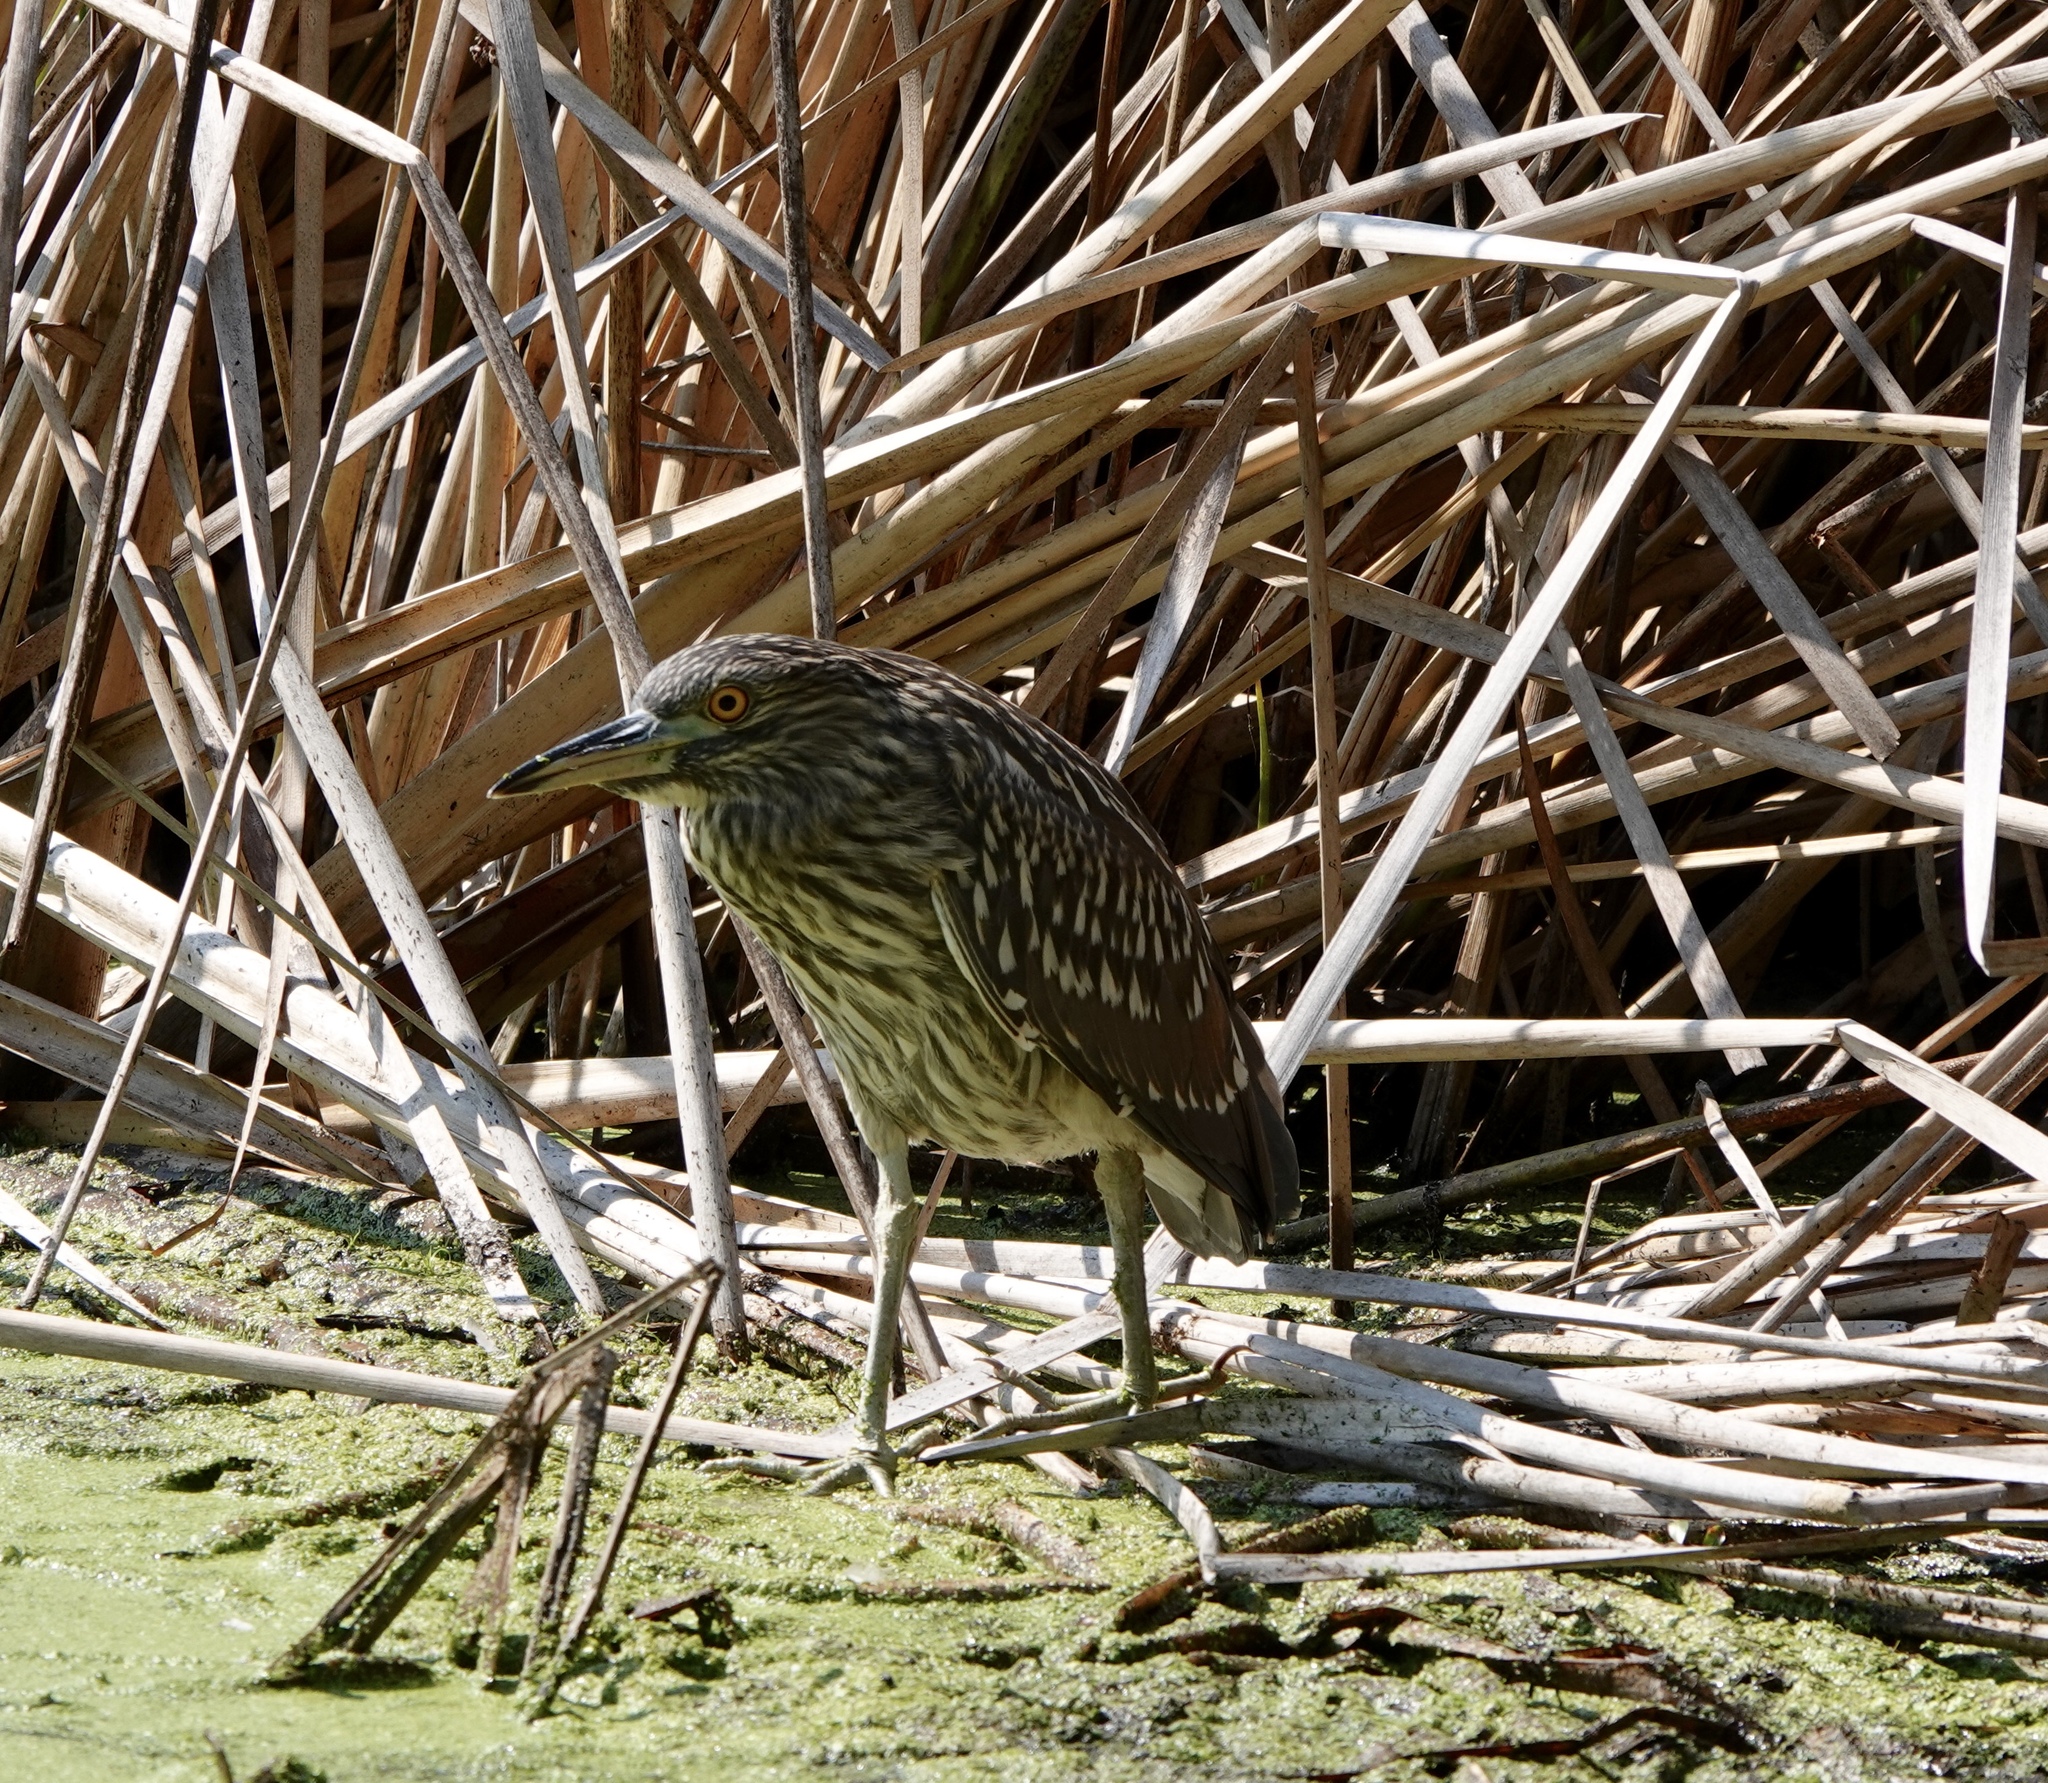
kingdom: Animalia
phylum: Chordata
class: Aves
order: Pelecaniformes
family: Ardeidae
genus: Nycticorax
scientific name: Nycticorax nycticorax
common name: Black-crowned night heron
